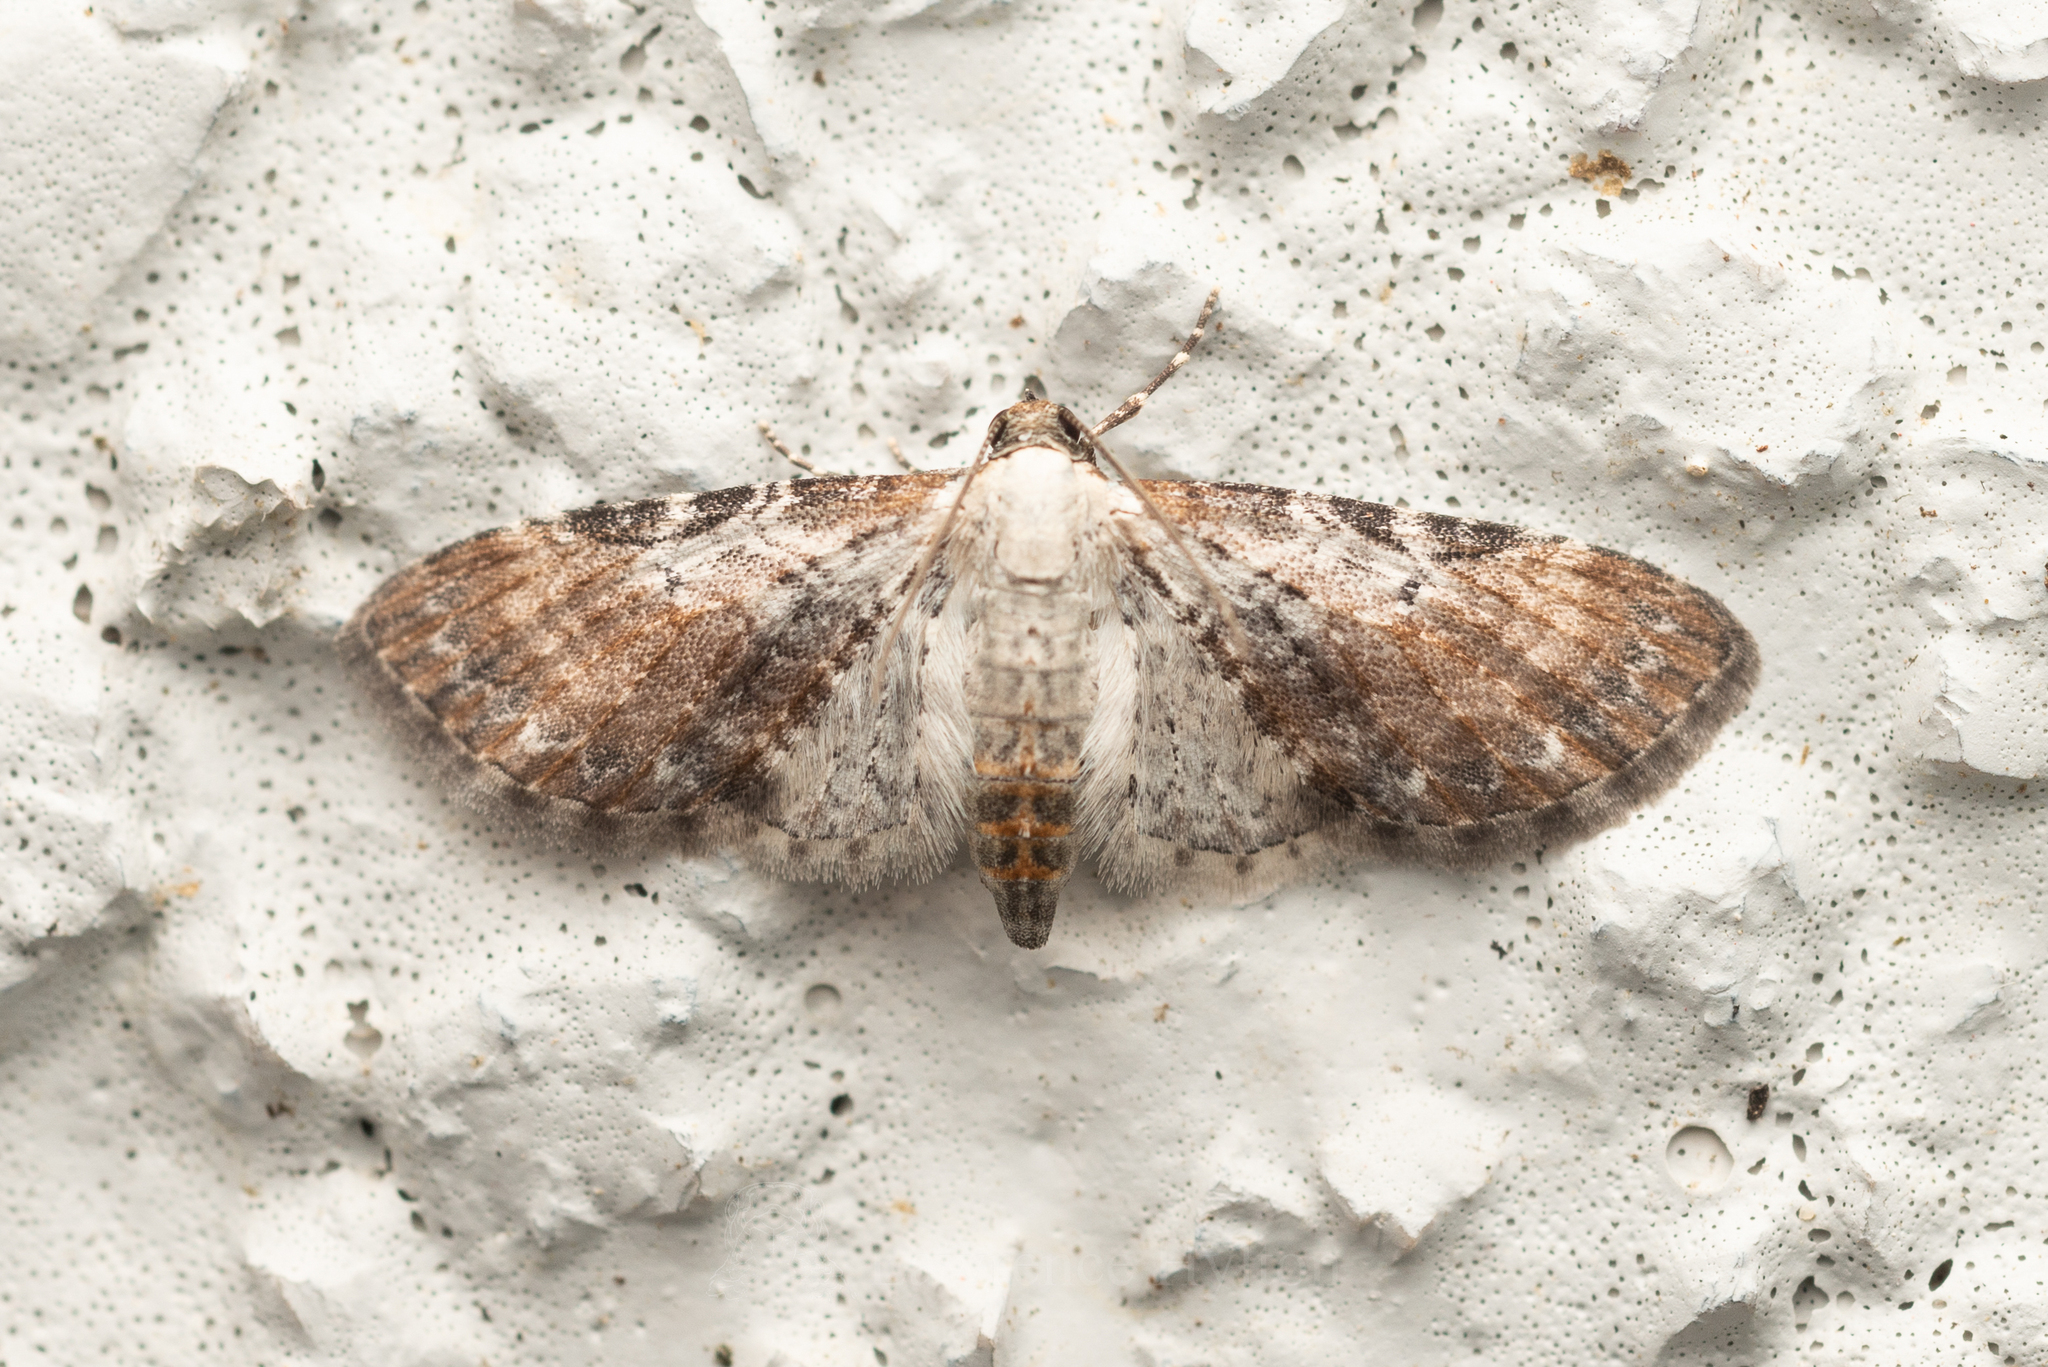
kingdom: Animalia
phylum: Arthropoda
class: Insecta
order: Lepidoptera
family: Geometridae
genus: Eupithecia
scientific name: Eupithecia mundiscripta
